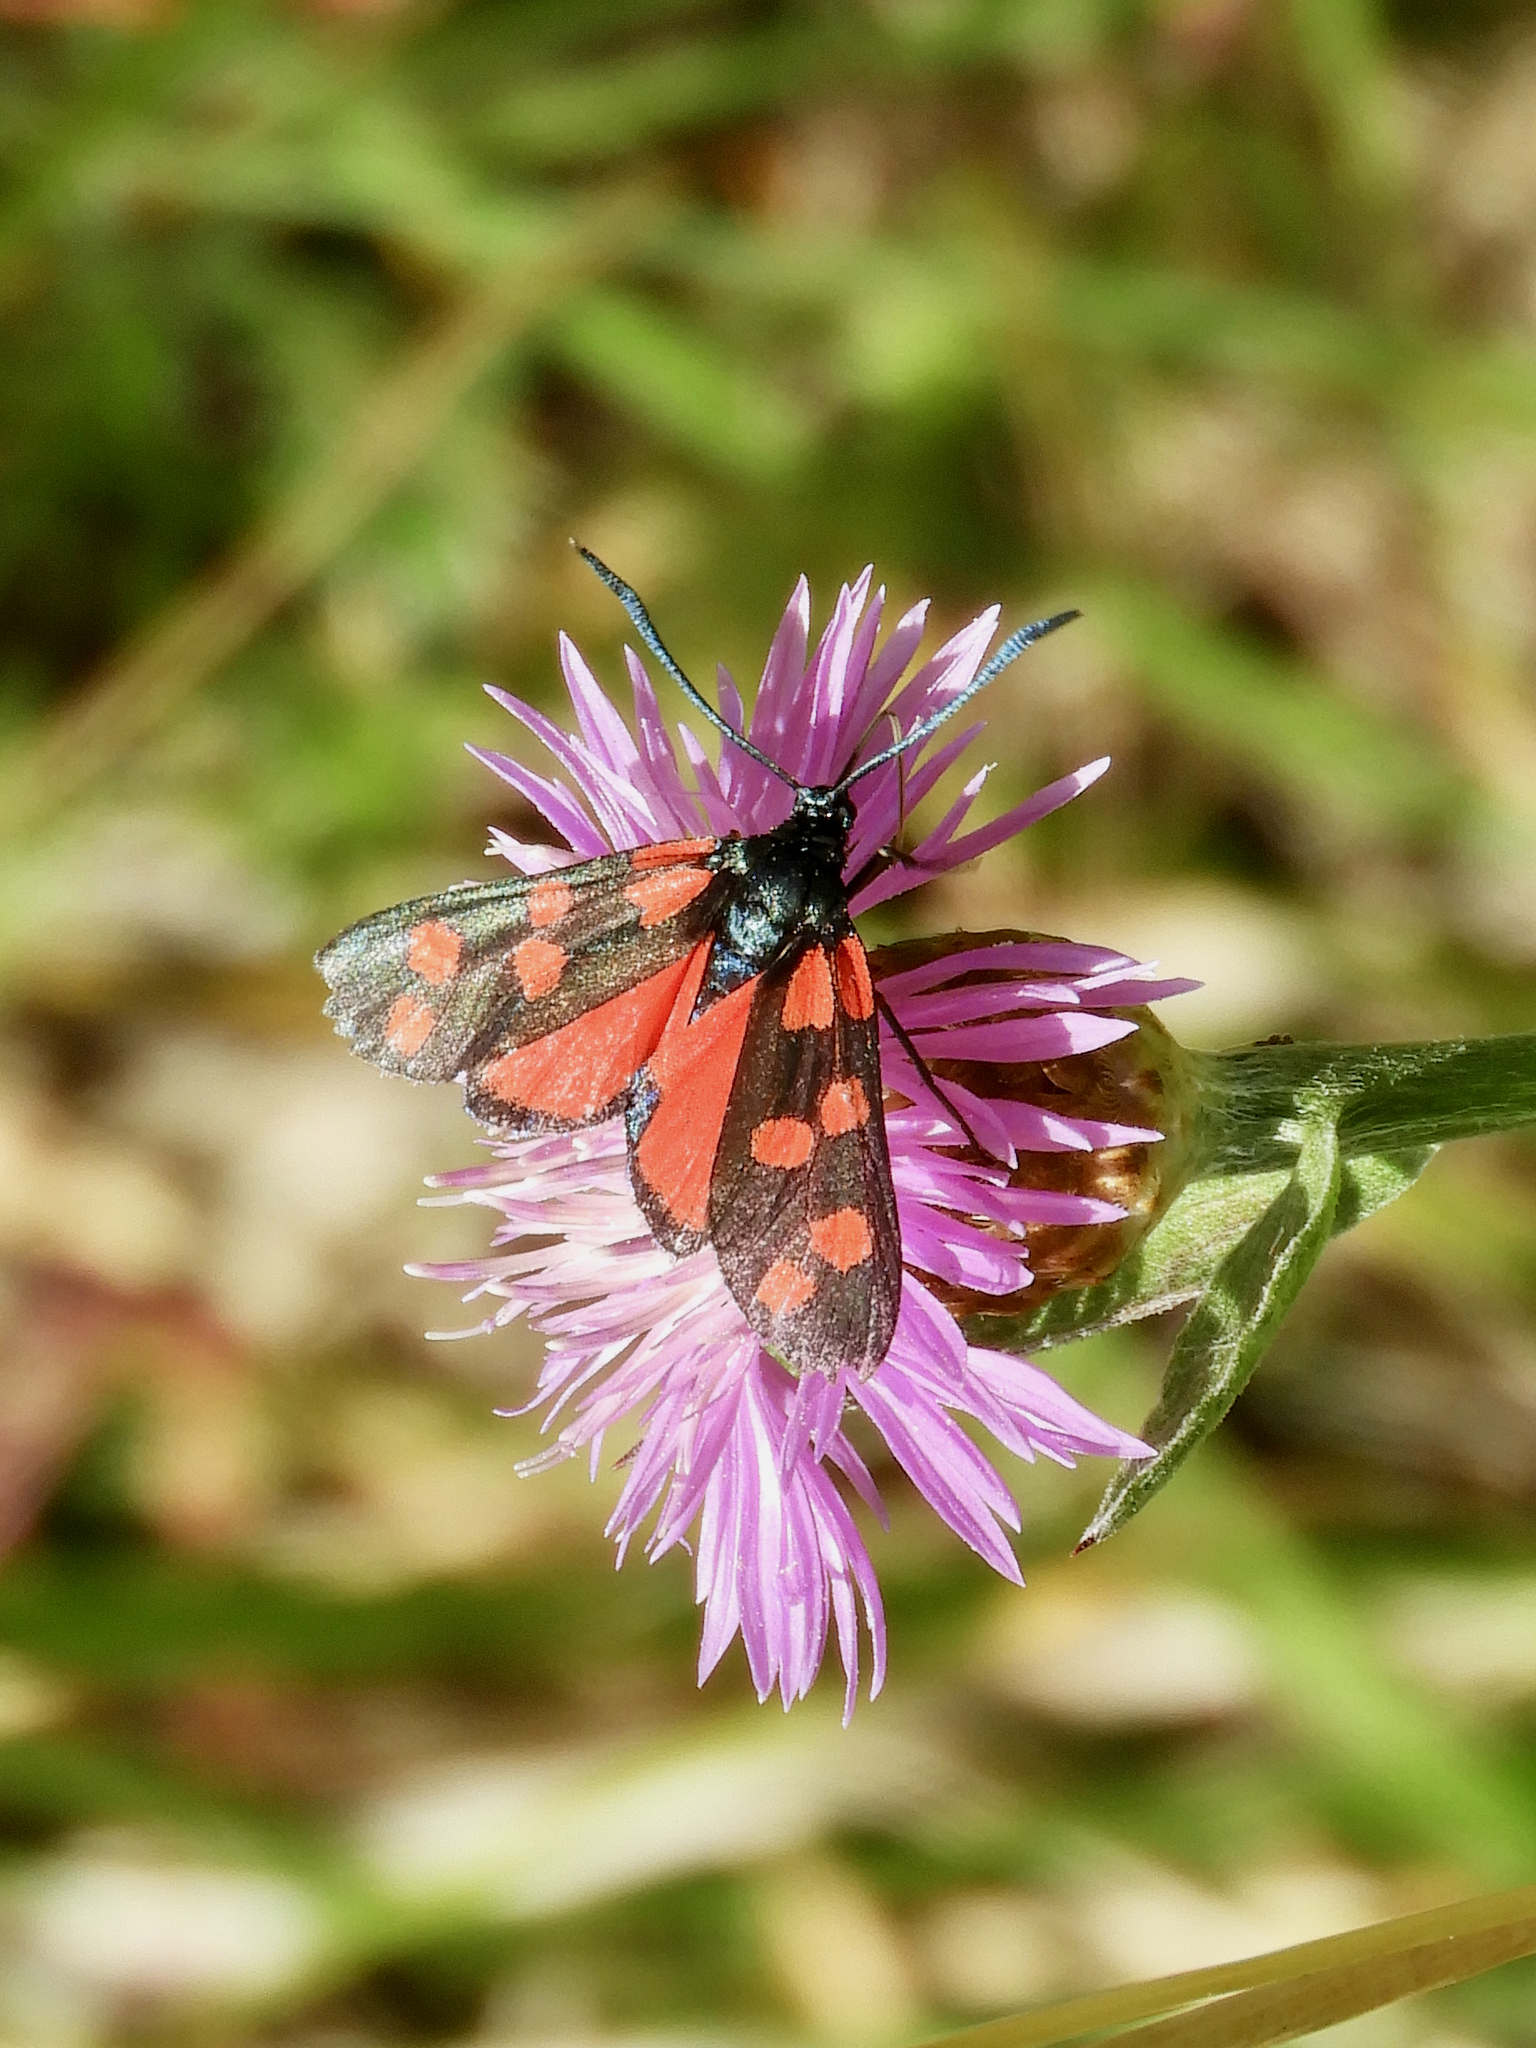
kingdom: Animalia
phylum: Arthropoda
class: Insecta
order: Lepidoptera
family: Zygaenidae
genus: Zygaena
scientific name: Zygaena transalpina
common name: Southern six spot burnet
